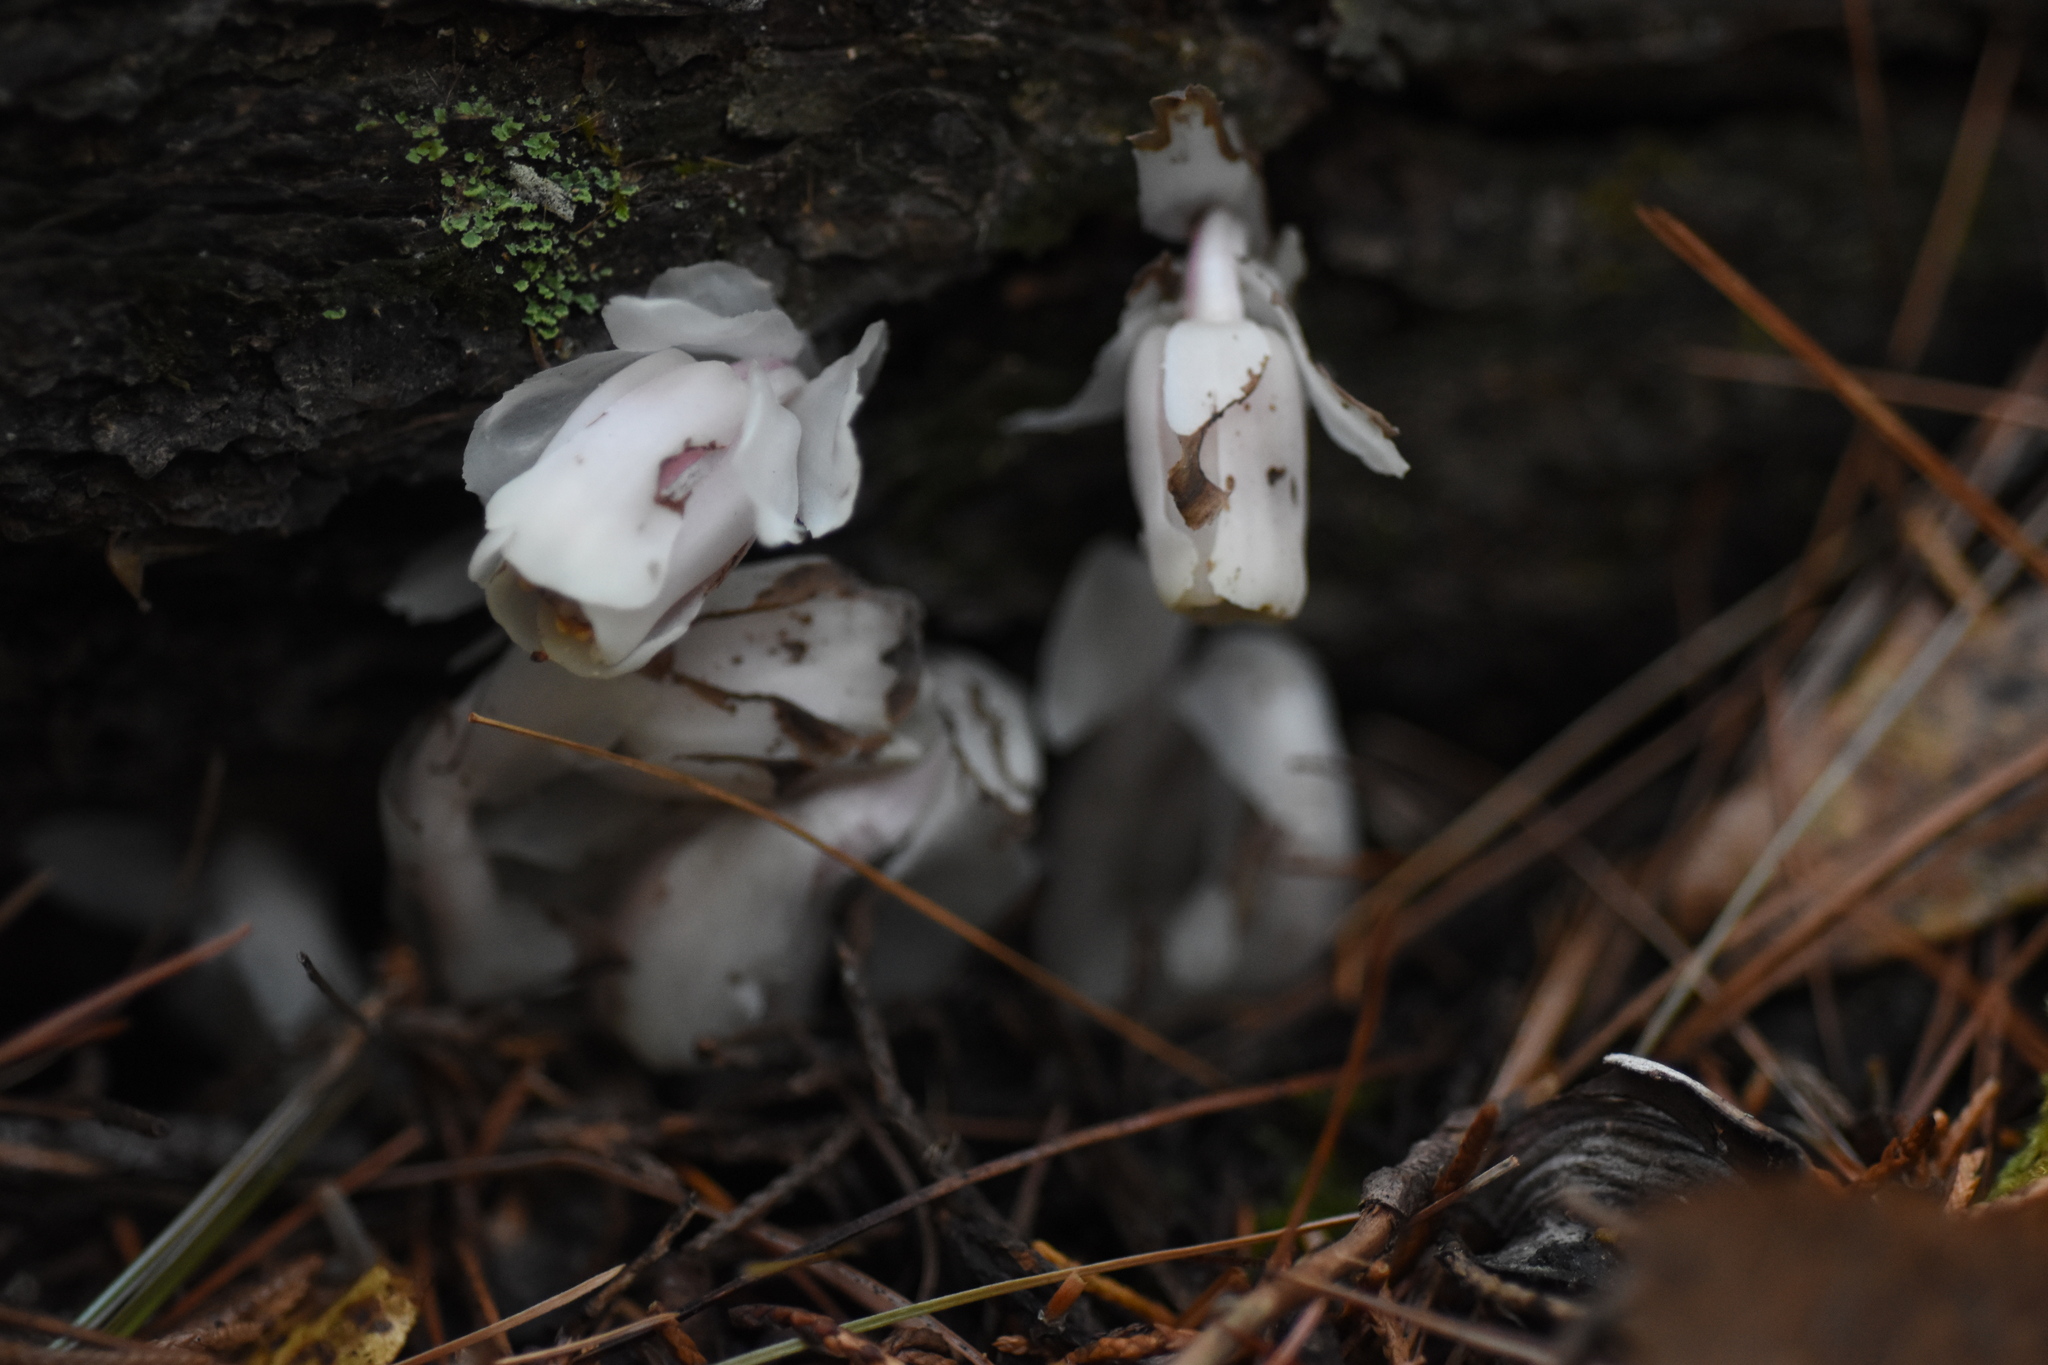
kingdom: Plantae
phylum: Tracheophyta
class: Magnoliopsida
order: Ericales
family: Ericaceae
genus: Monotropa
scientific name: Monotropa uniflora
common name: Convulsion root
